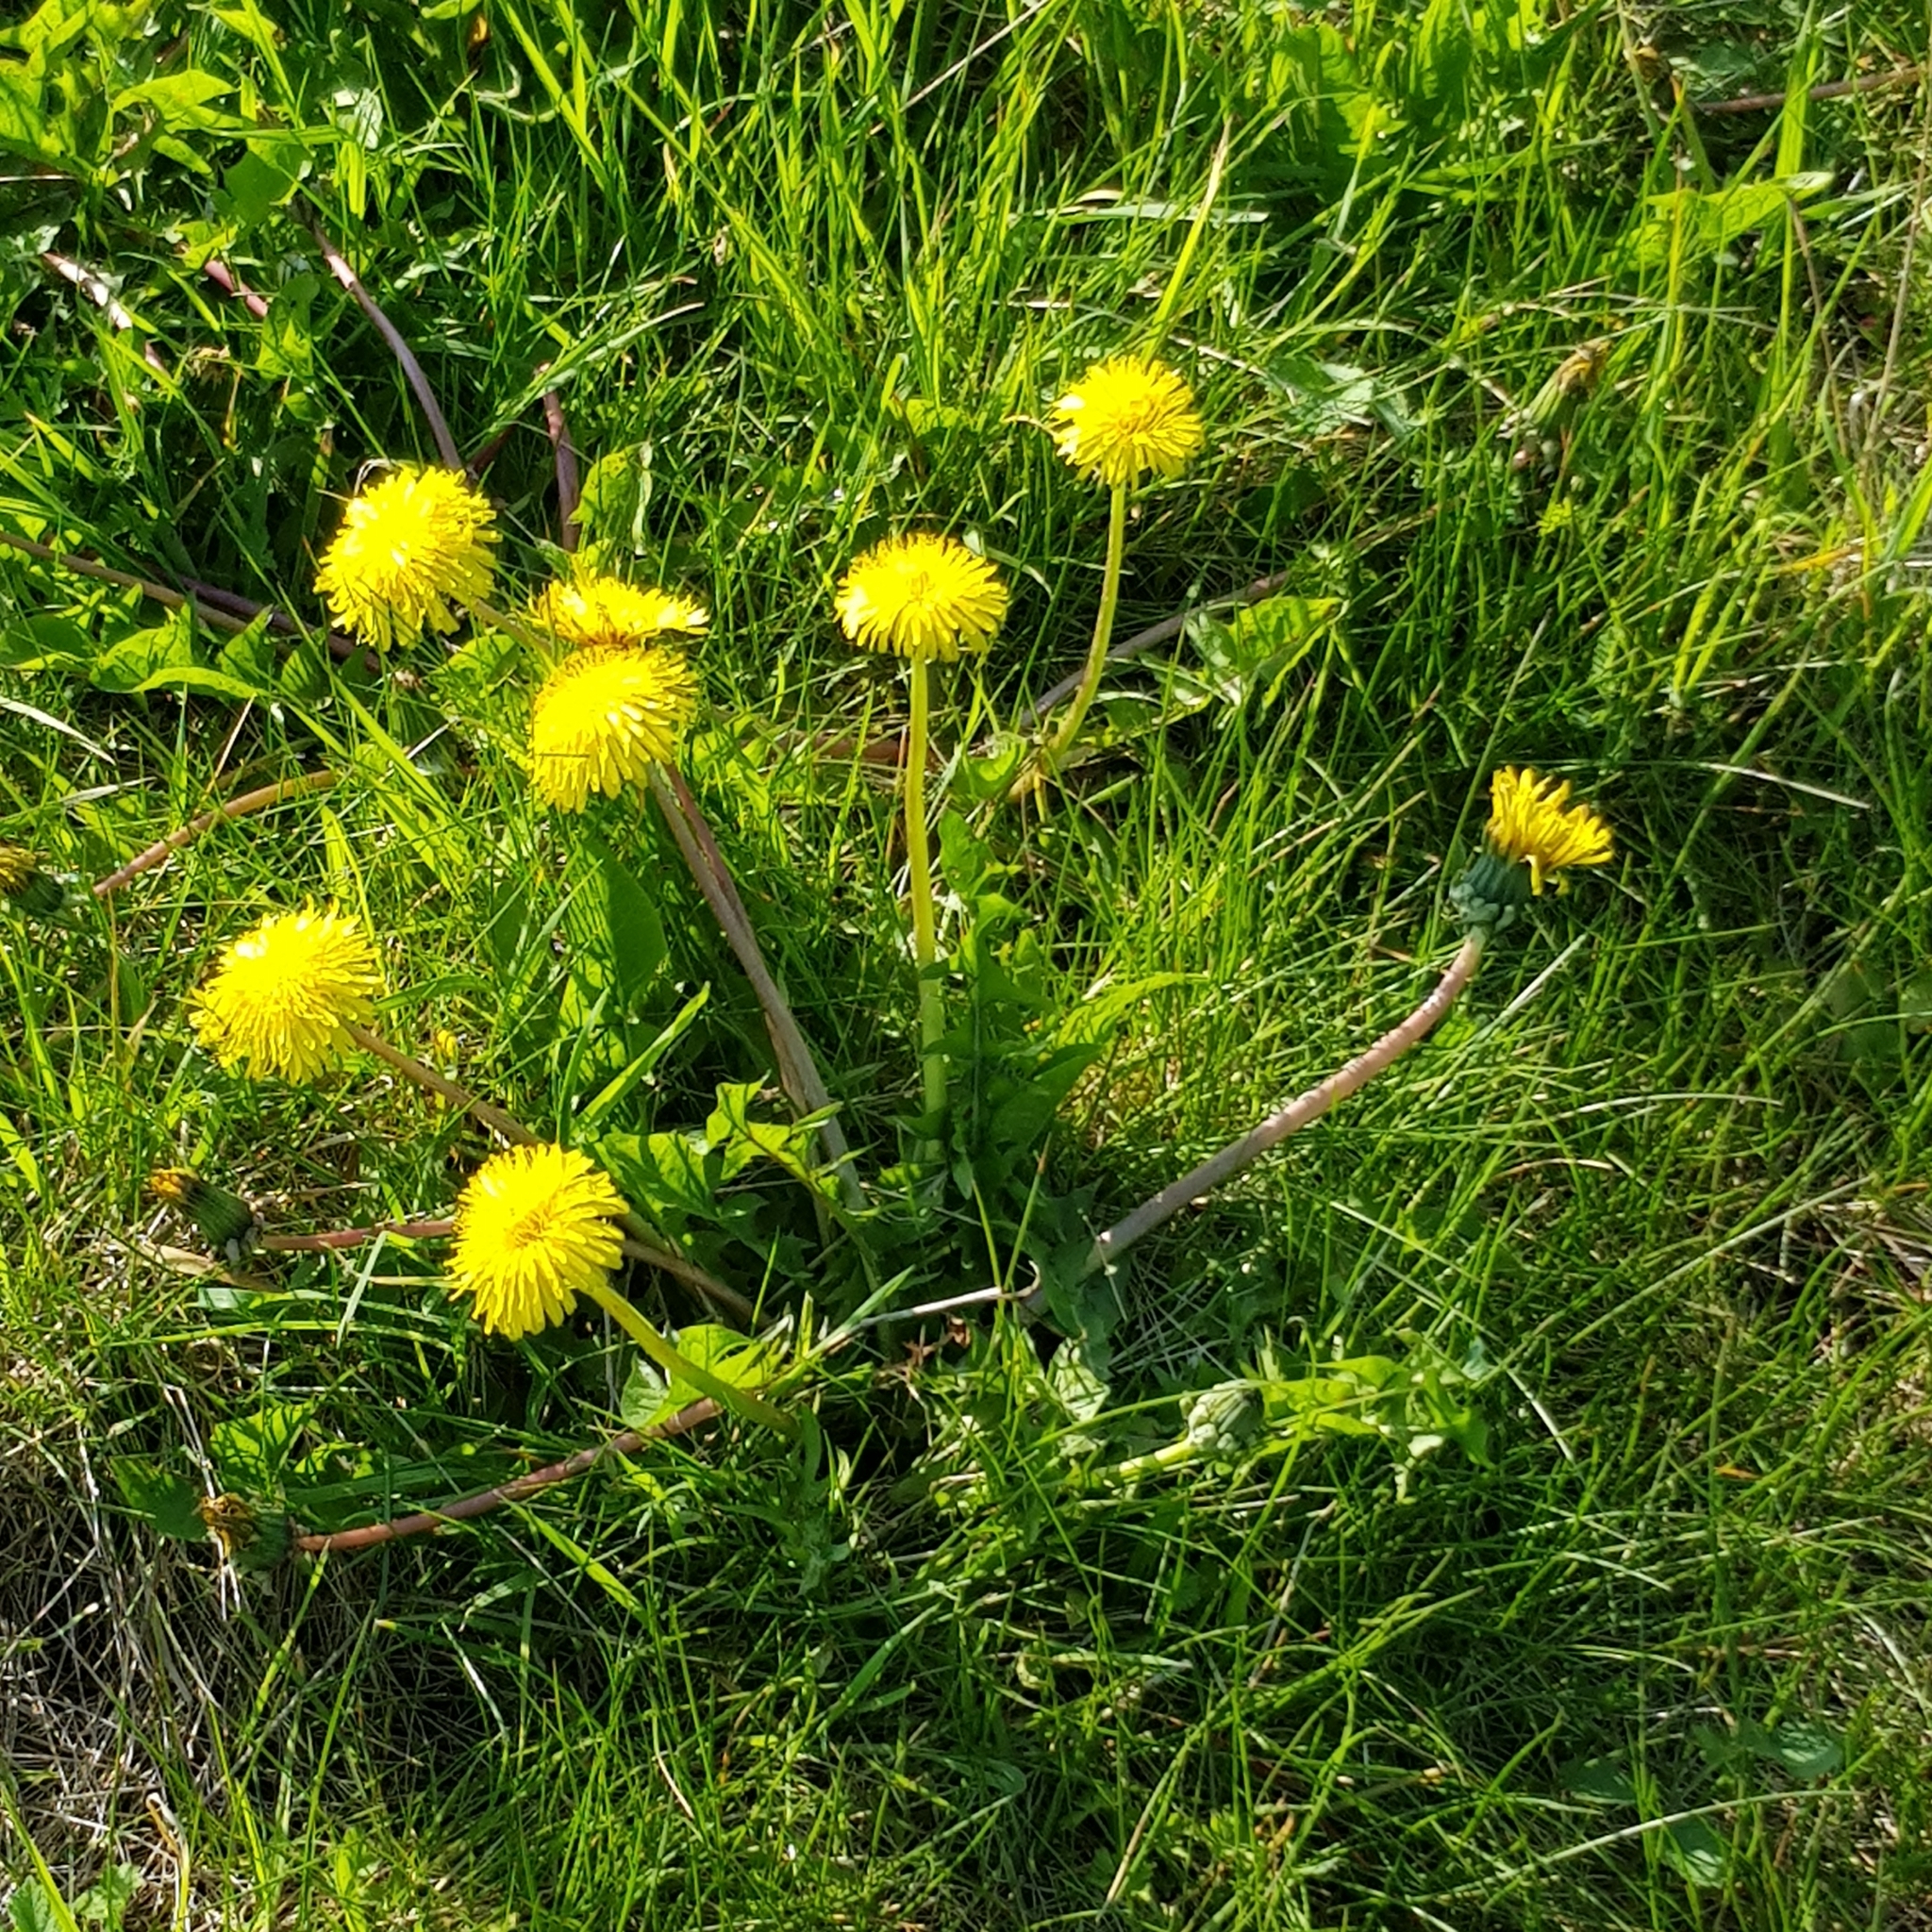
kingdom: Plantae
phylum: Tracheophyta
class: Magnoliopsida
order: Asterales
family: Asteraceae
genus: Taraxacum
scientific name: Taraxacum officinale
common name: Common dandelion
